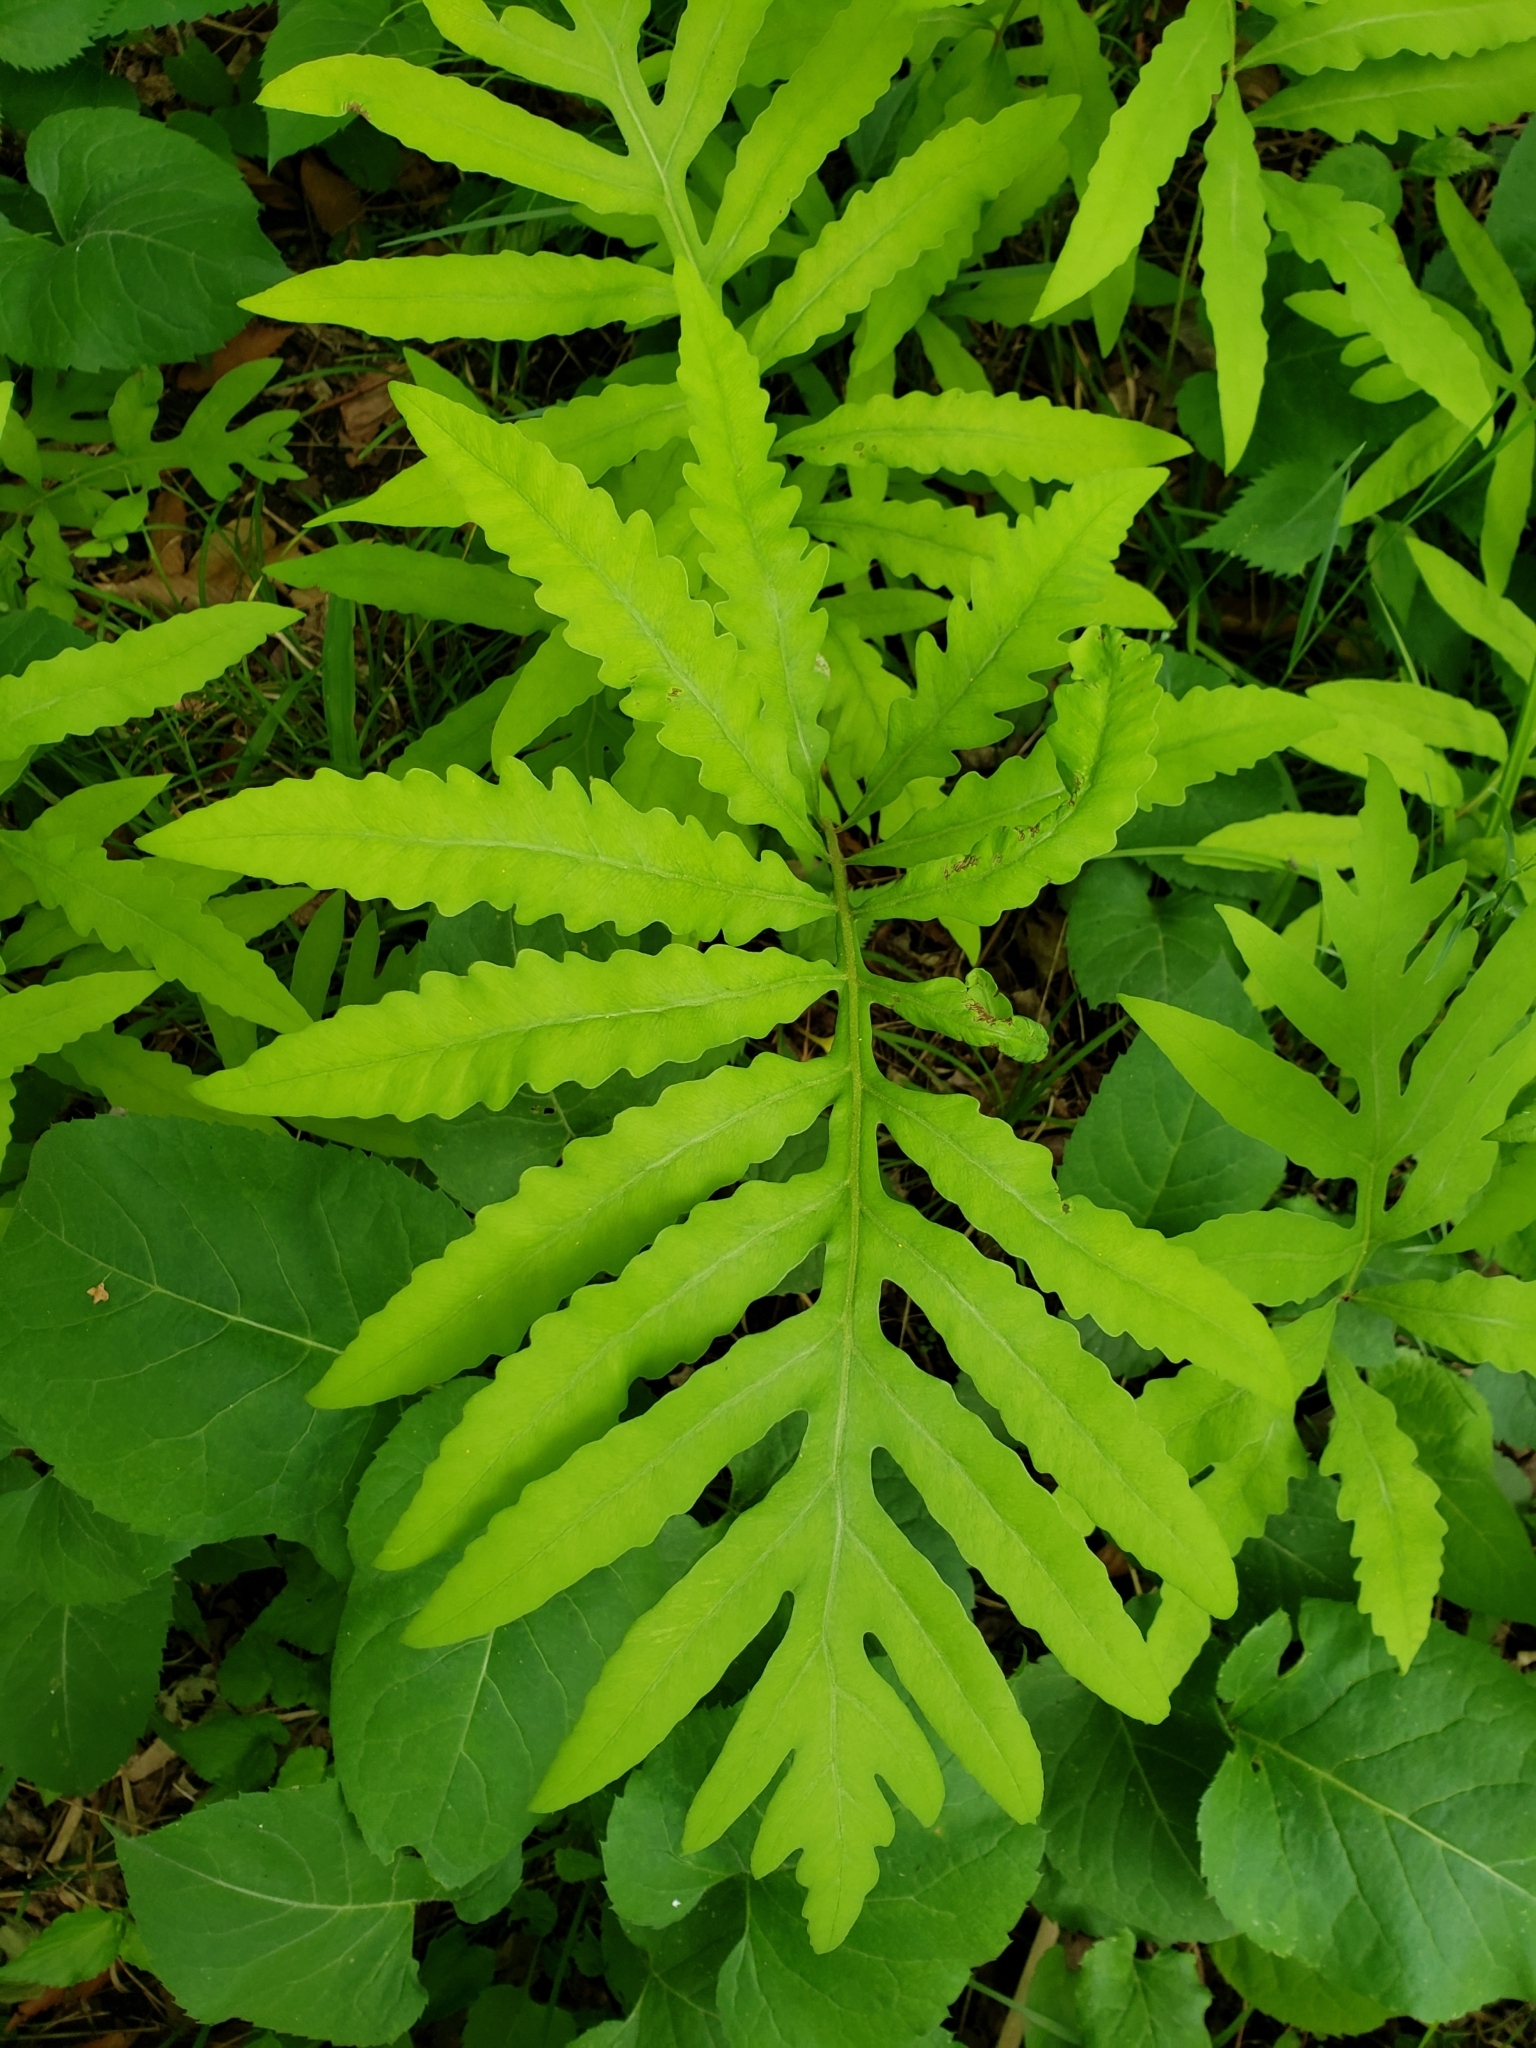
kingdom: Plantae
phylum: Tracheophyta
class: Polypodiopsida
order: Polypodiales
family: Onocleaceae
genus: Onoclea
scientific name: Onoclea sensibilis
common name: Sensitive fern
